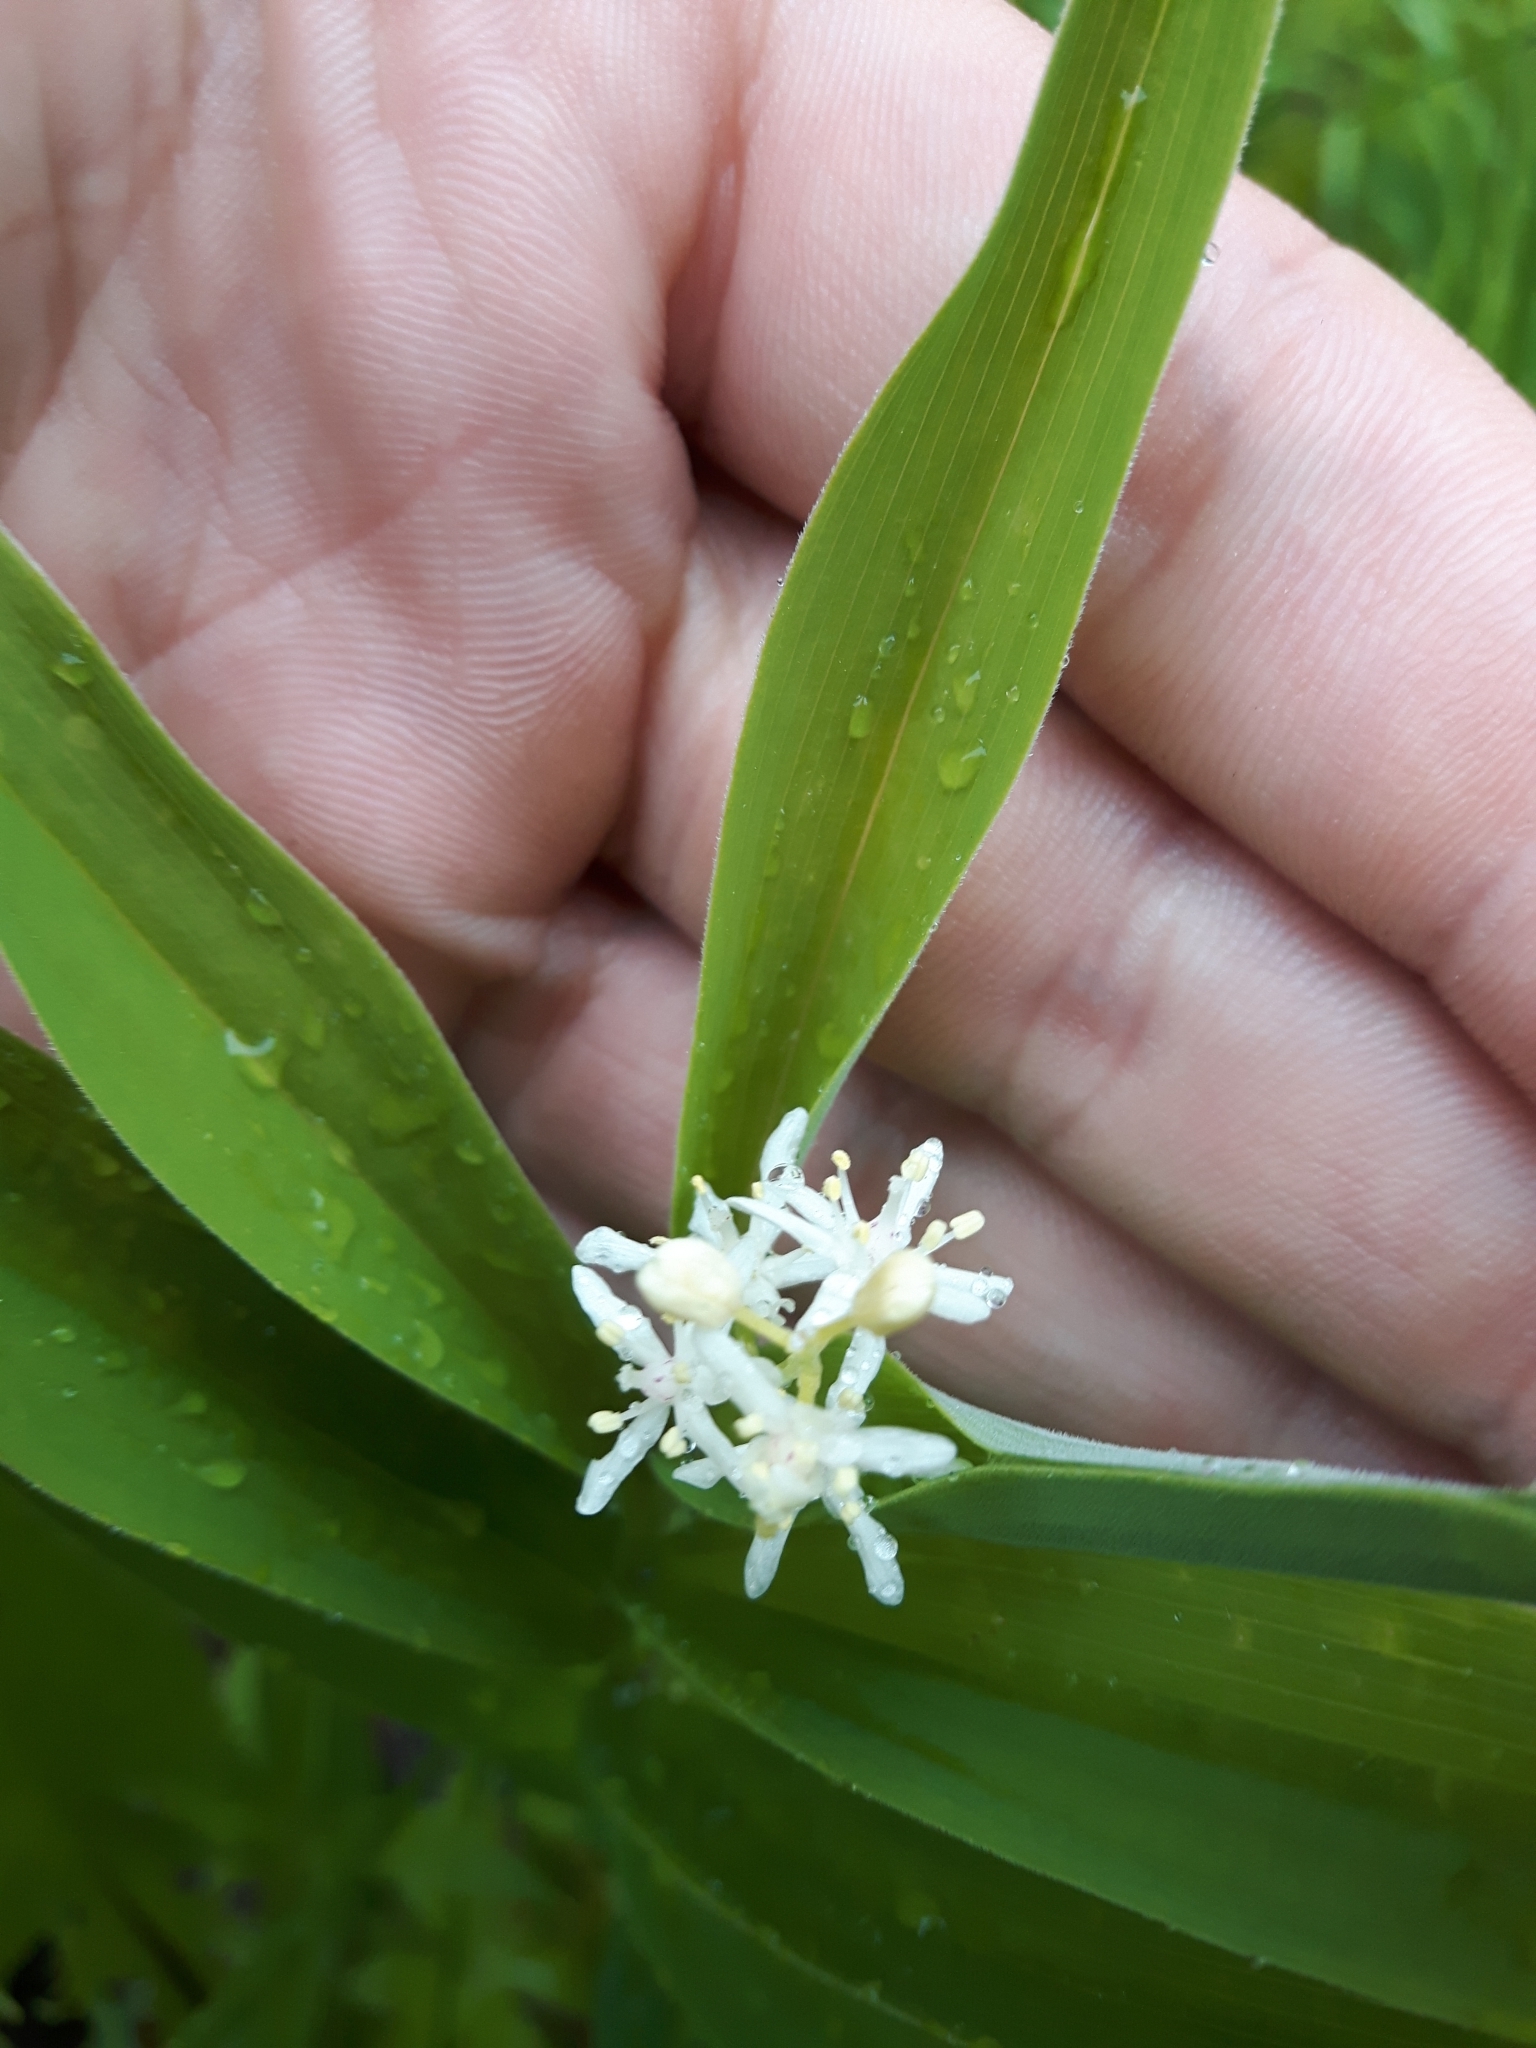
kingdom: Plantae
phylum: Tracheophyta
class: Liliopsida
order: Asparagales
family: Asparagaceae
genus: Maianthemum
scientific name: Maianthemum stellatum
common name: Little false solomon's seal
